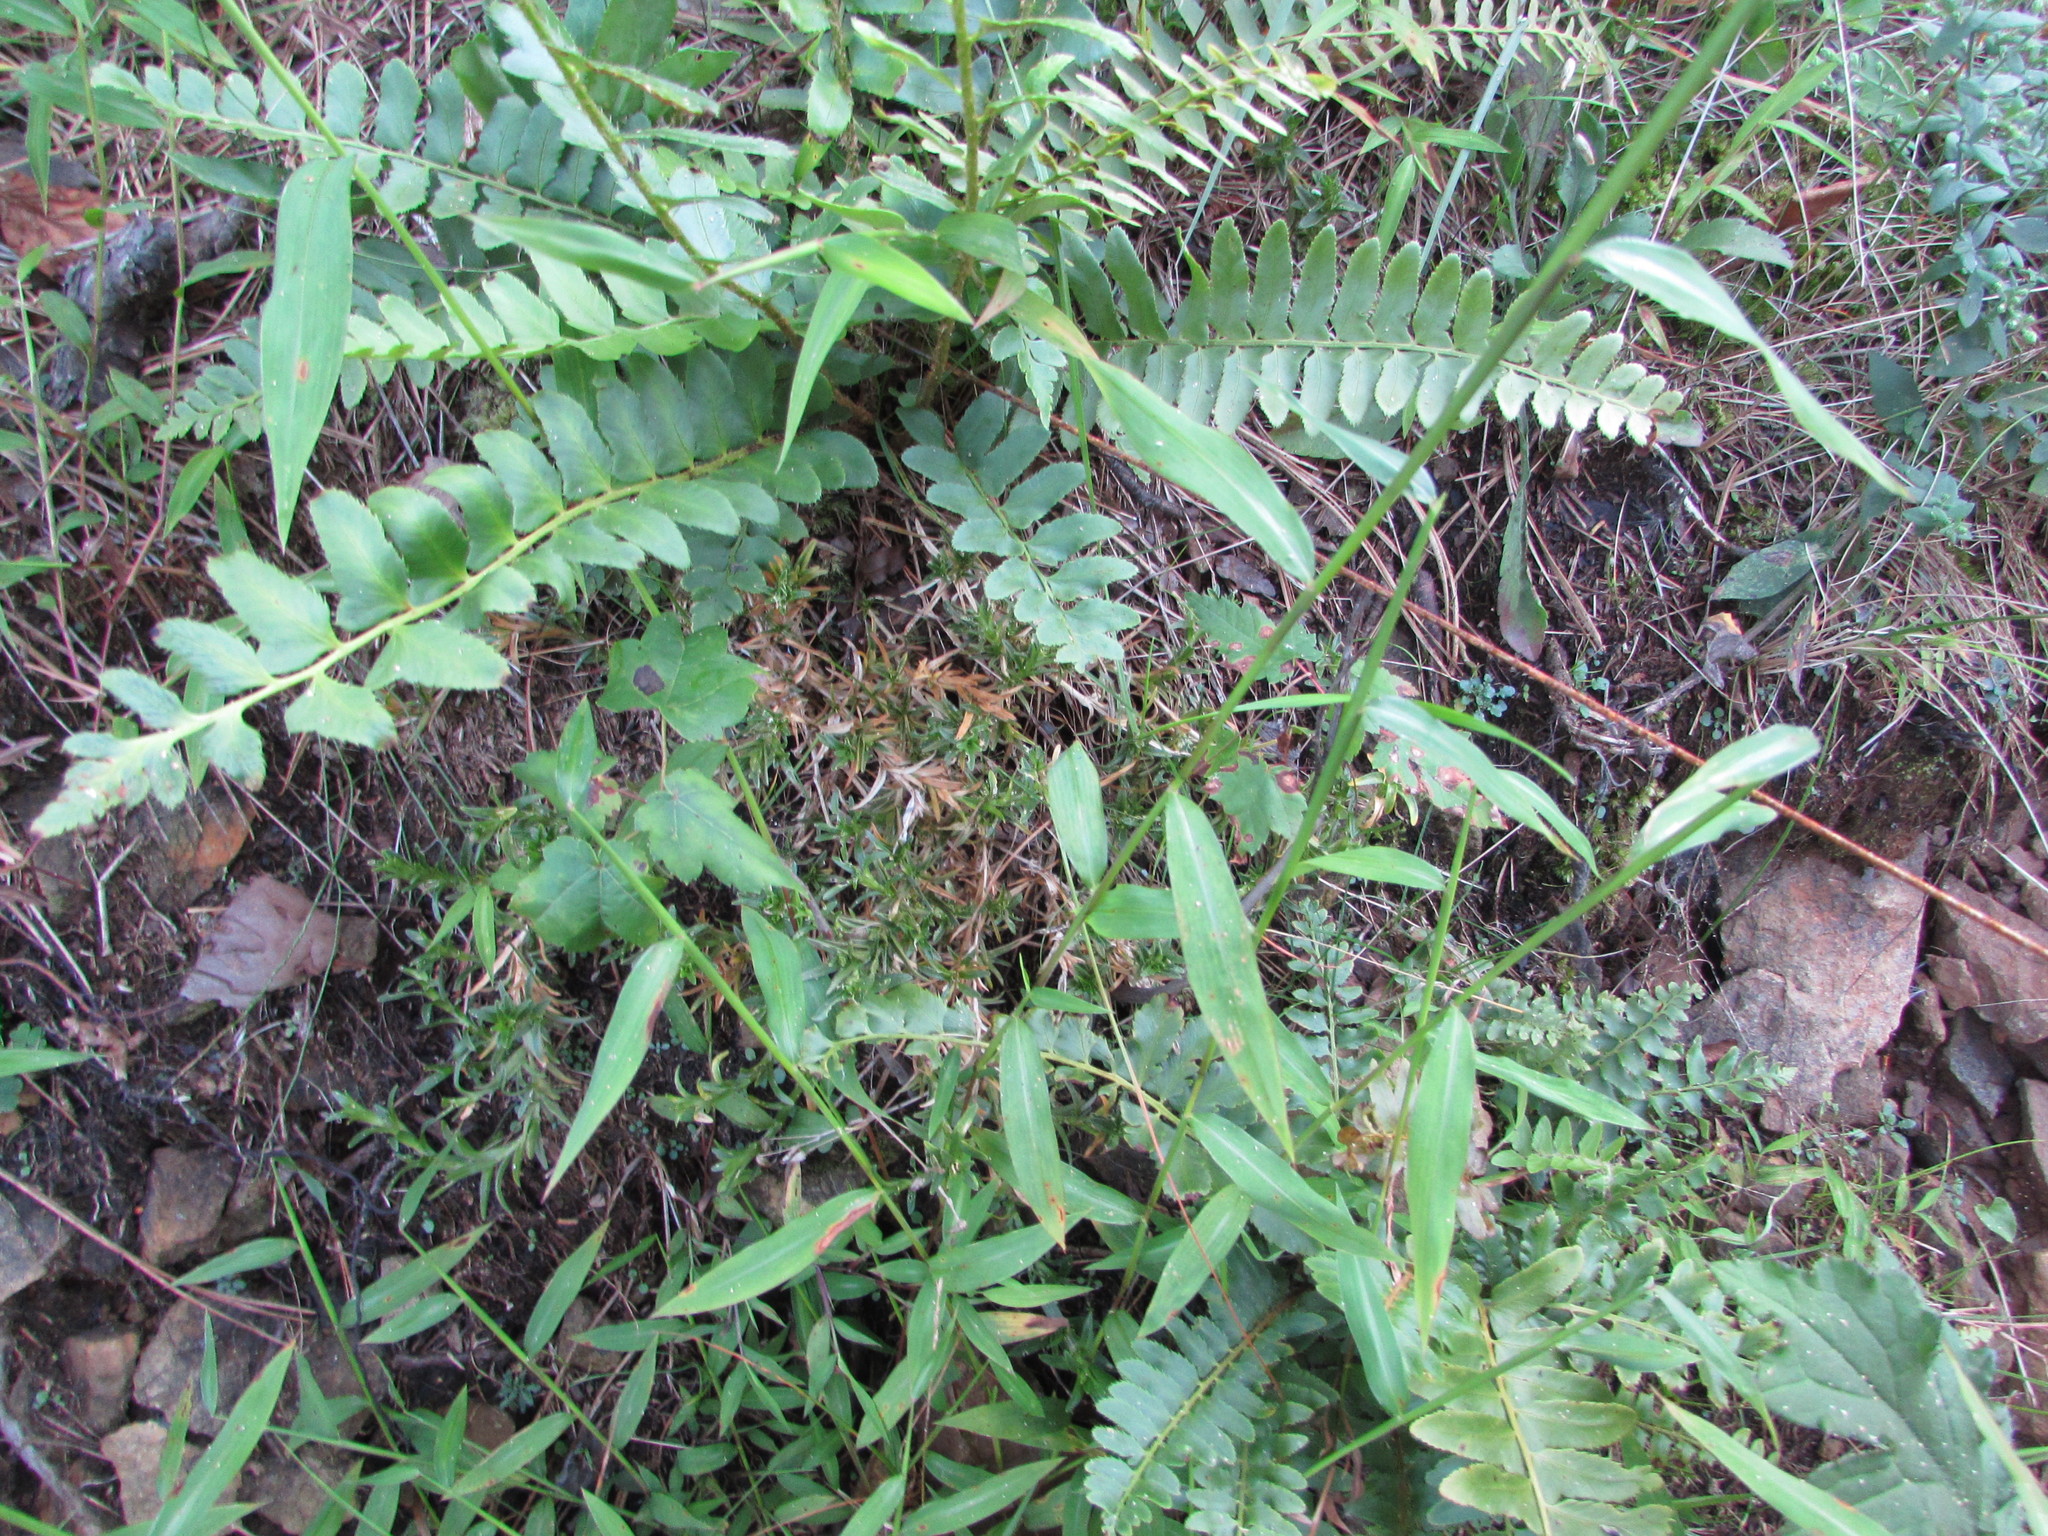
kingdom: Plantae
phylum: Tracheophyta
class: Magnoliopsida
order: Ericales
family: Polemoniaceae
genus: Phlox
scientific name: Phlox subulata
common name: Moss phlox
